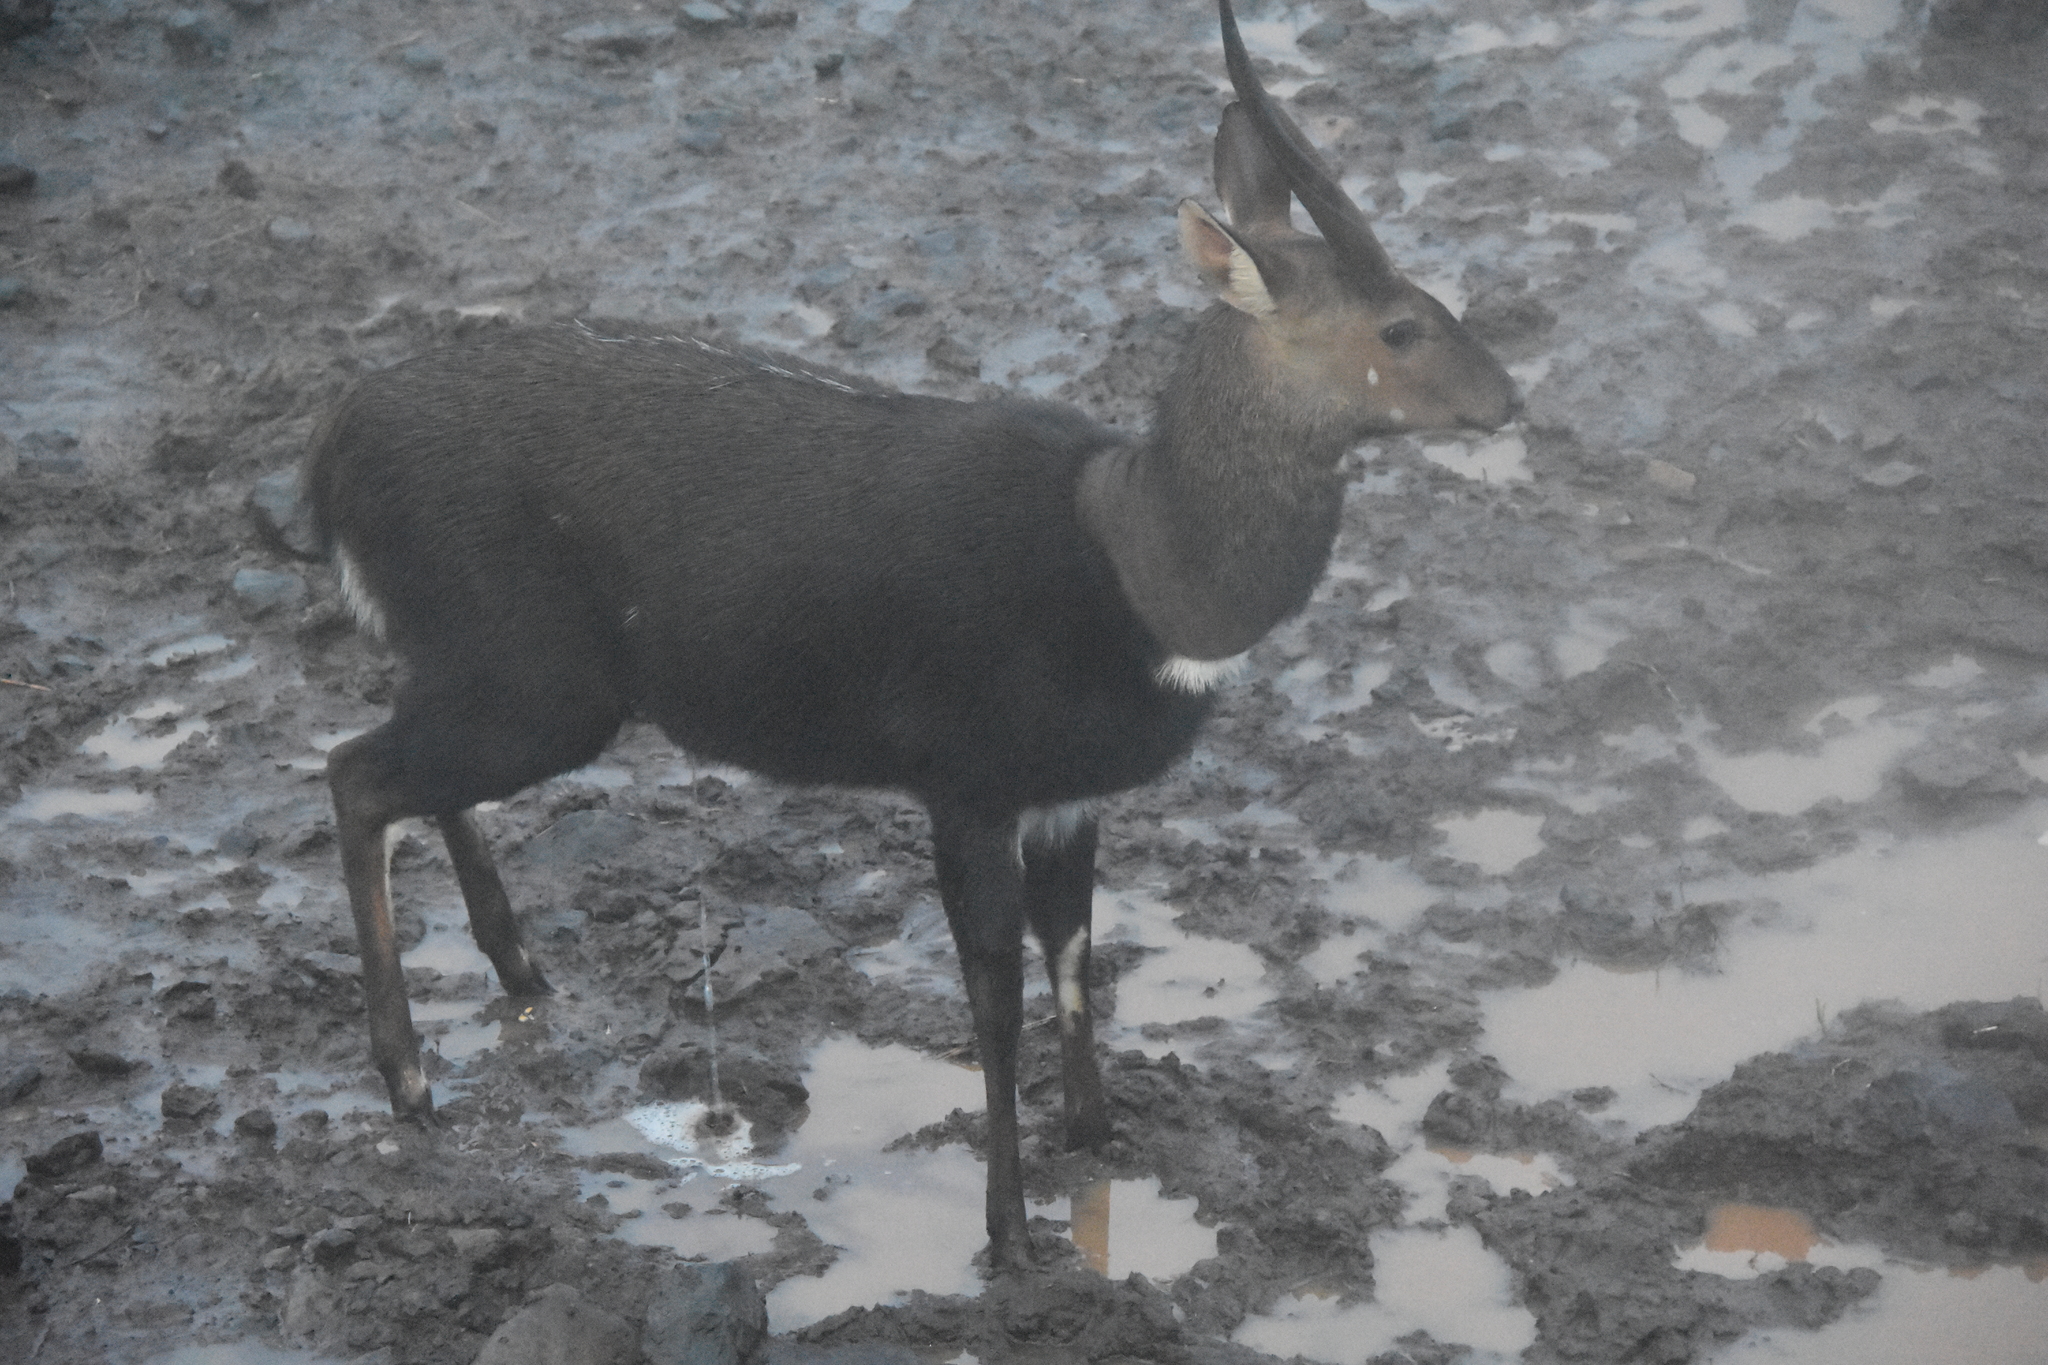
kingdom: Animalia
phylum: Chordata
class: Mammalia
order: Artiodactyla
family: Bovidae
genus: Tragelaphus
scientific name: Tragelaphus scriptus
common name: Bushbuck
